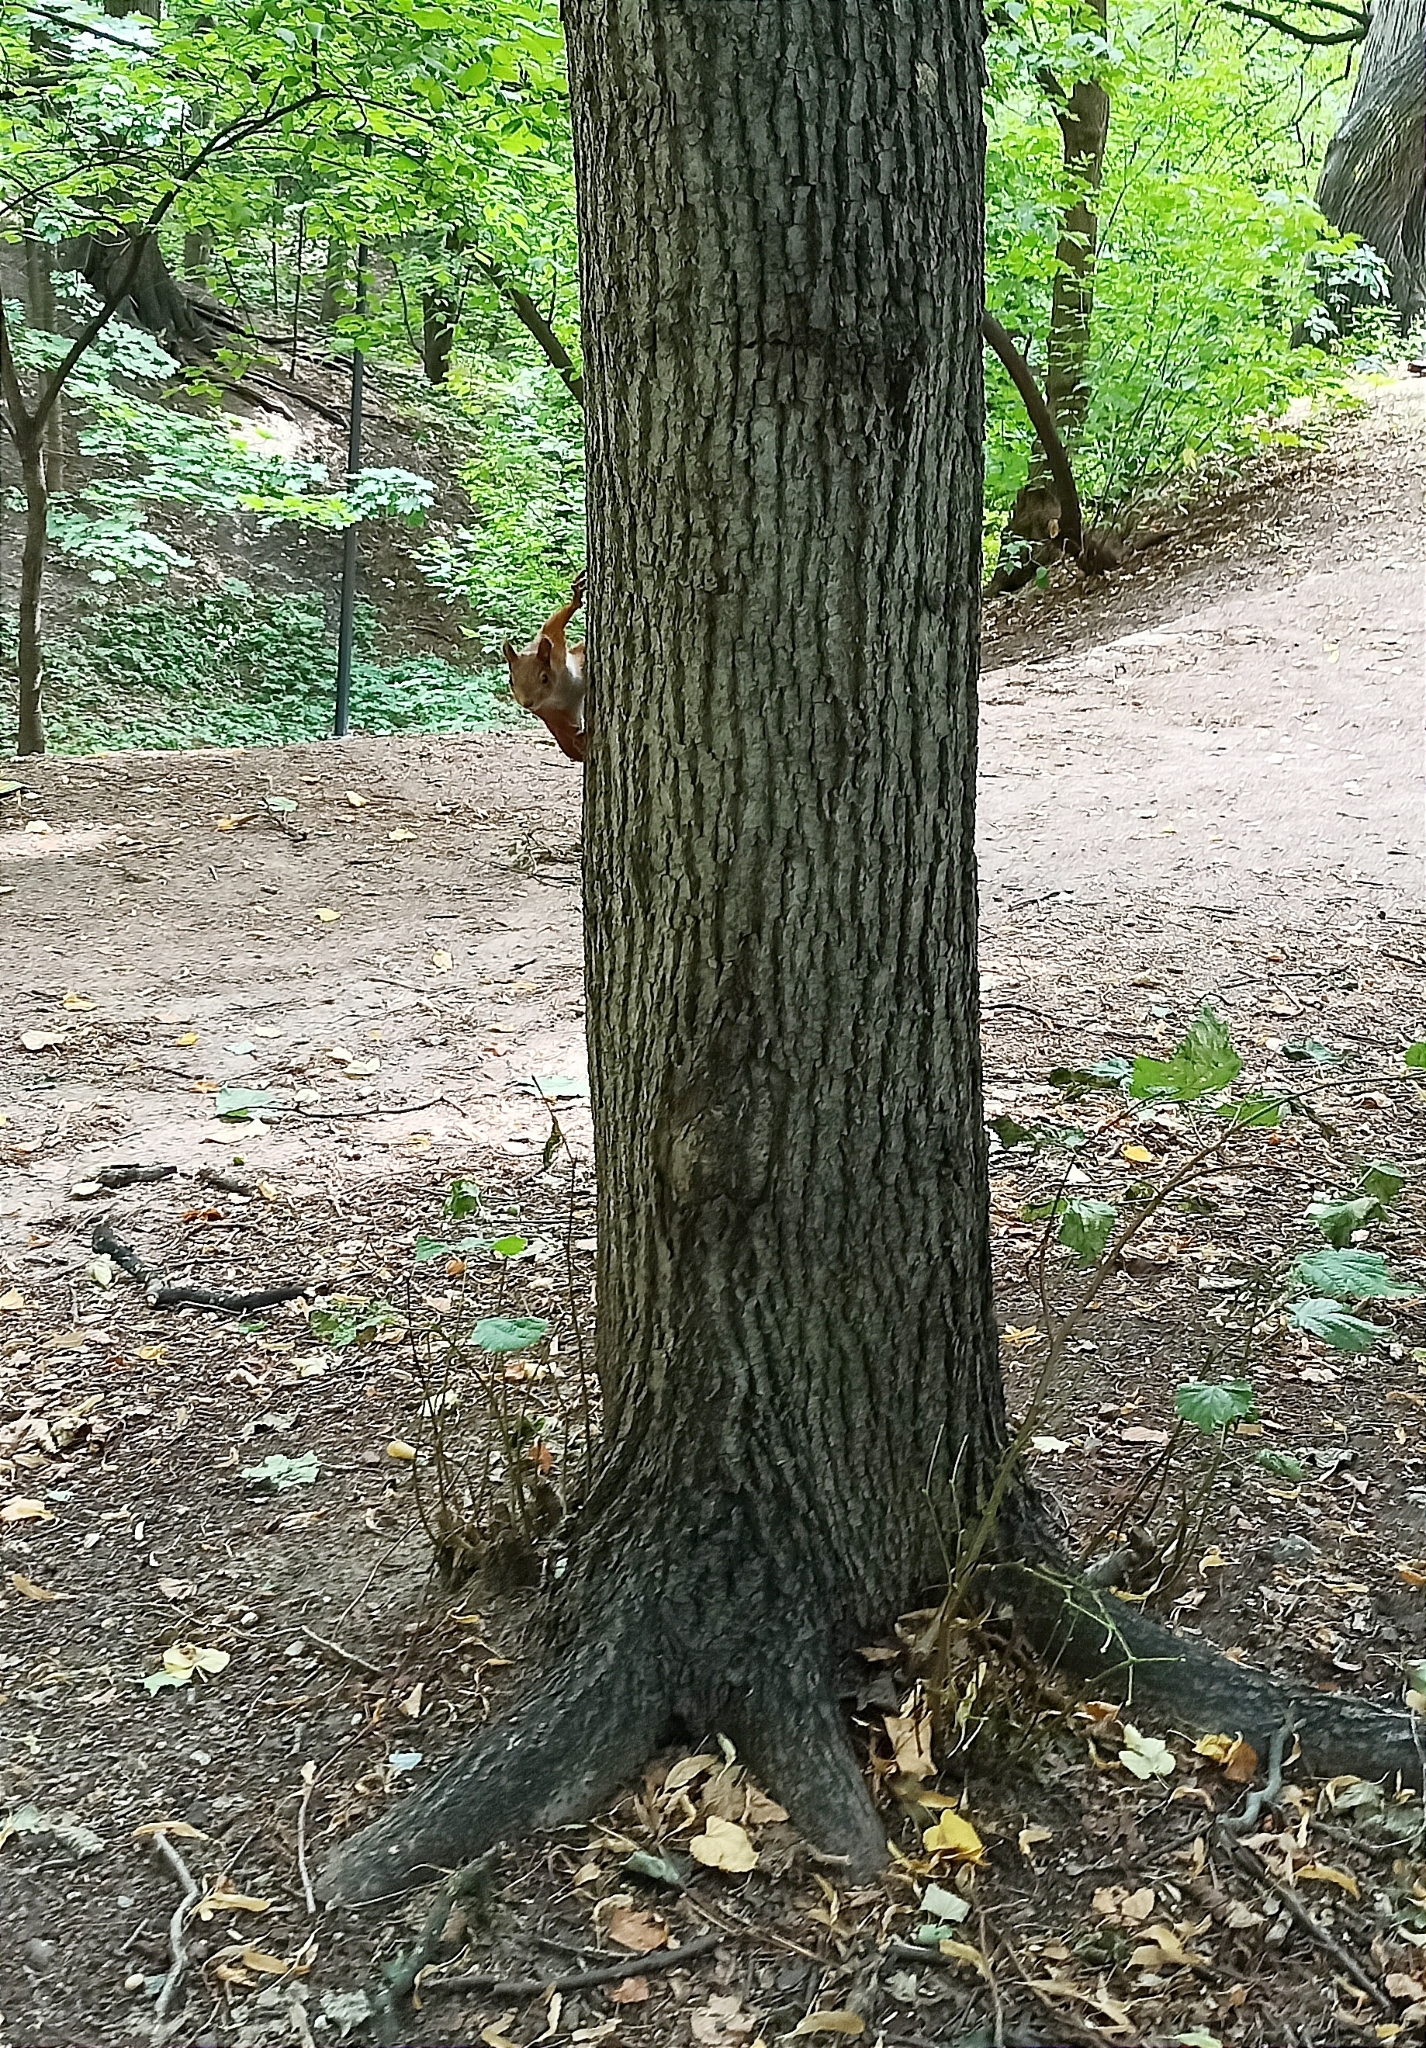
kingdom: Animalia
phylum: Chordata
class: Mammalia
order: Rodentia
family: Sciuridae
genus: Sciurus
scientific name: Sciurus vulgaris
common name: Eurasian red squirrel
